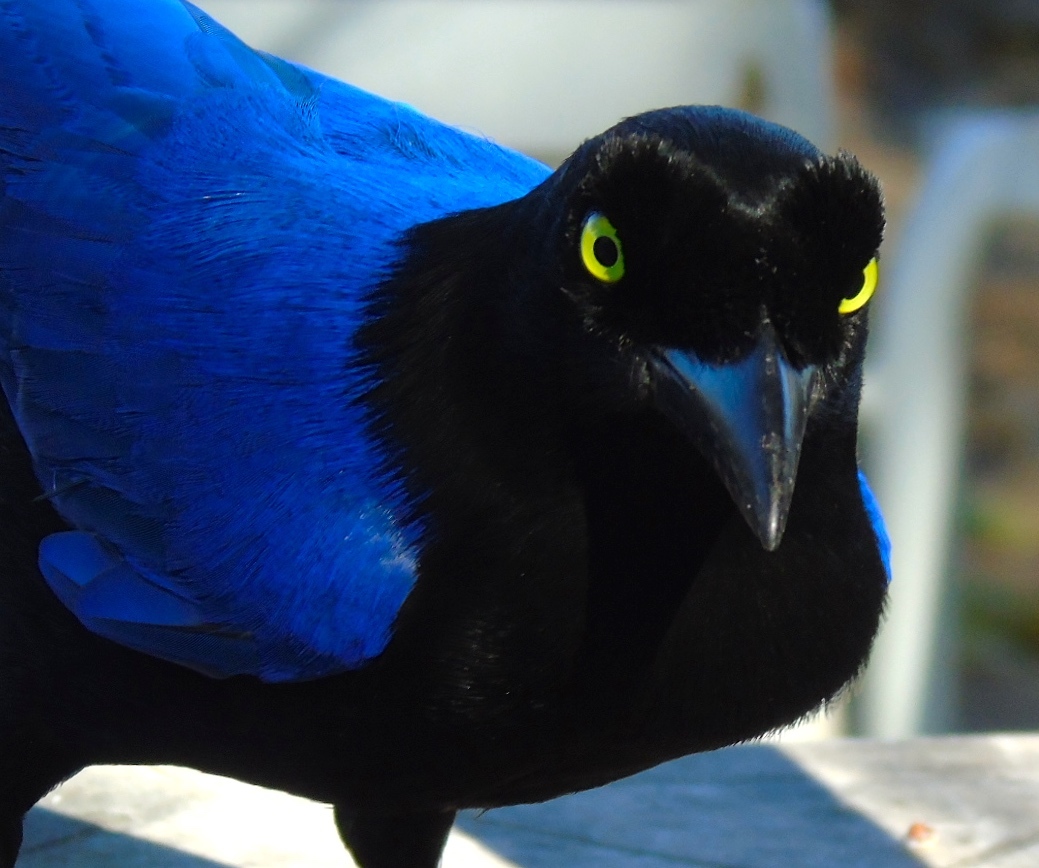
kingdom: Animalia
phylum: Chordata
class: Aves
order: Passeriformes
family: Corvidae
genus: Cyanocorax
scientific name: Cyanocorax beecheii
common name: Purplish-backed jay
